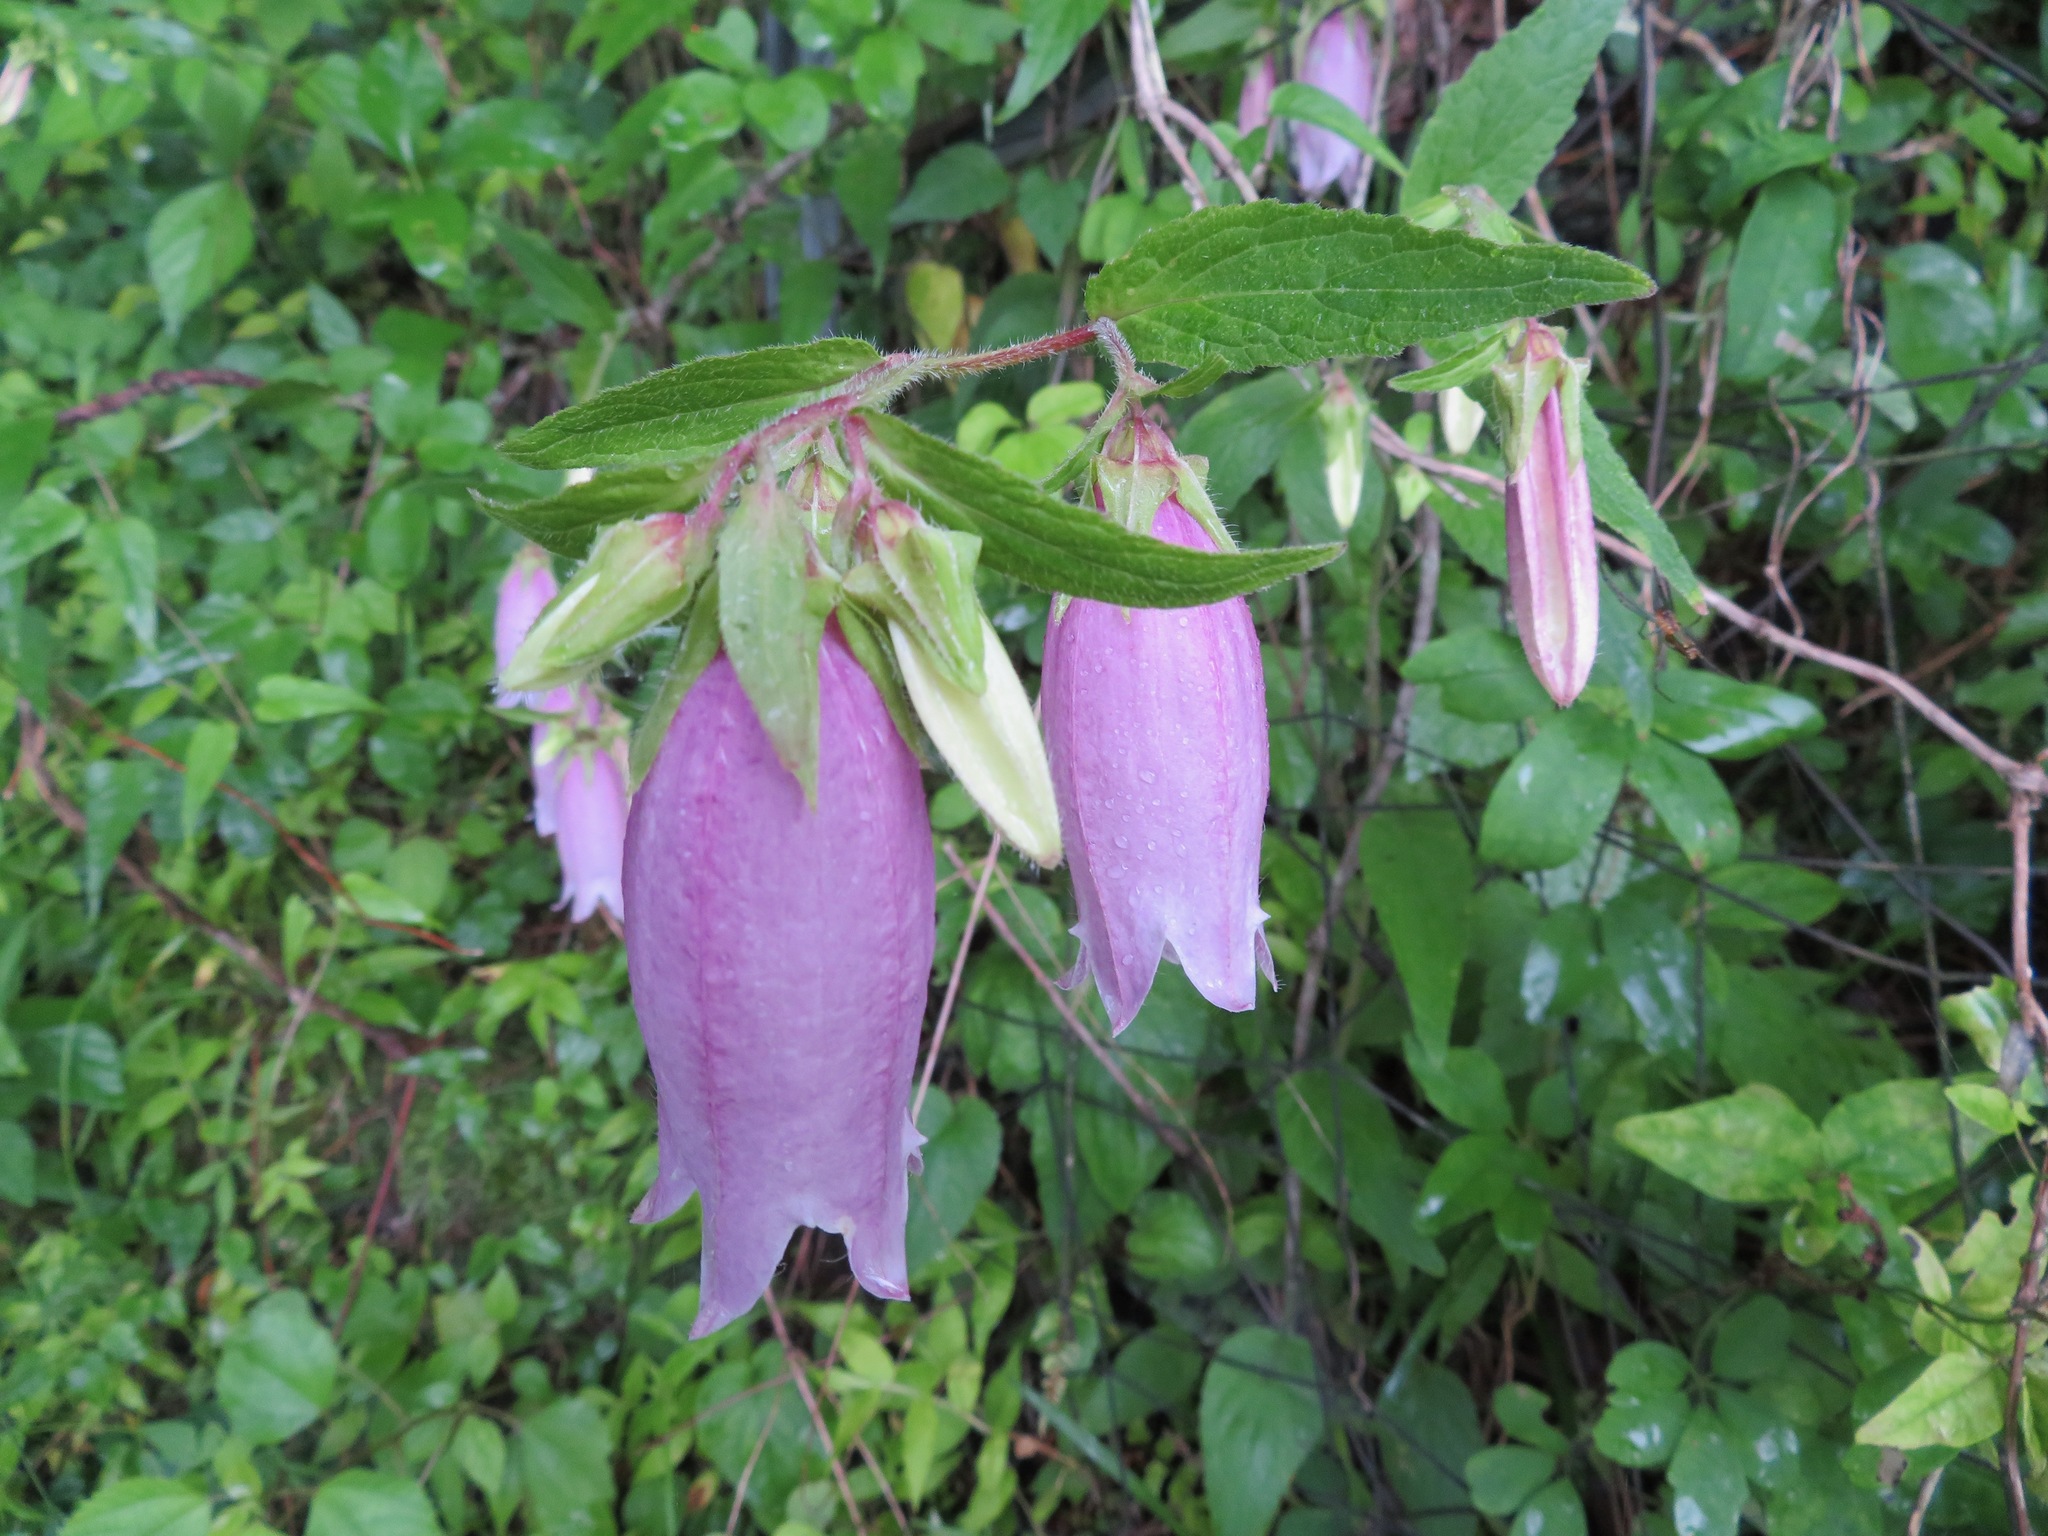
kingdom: Plantae
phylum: Tracheophyta
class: Magnoliopsida
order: Asterales
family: Campanulaceae
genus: Campanula
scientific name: Campanula punctata
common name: Spotted bellflower
